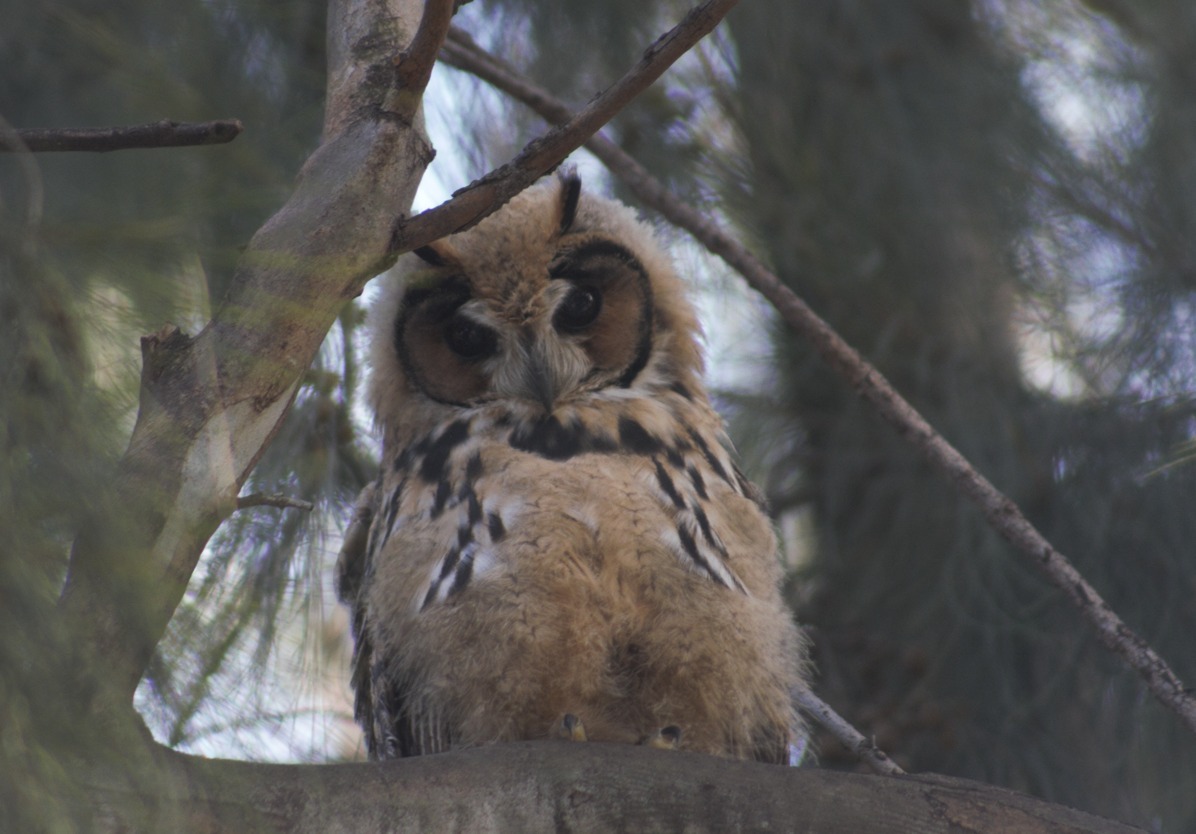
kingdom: Animalia
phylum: Chordata
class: Aves
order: Strigiformes
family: Strigidae
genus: Pseudoscops
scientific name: Pseudoscops clamator
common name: Striped owl
